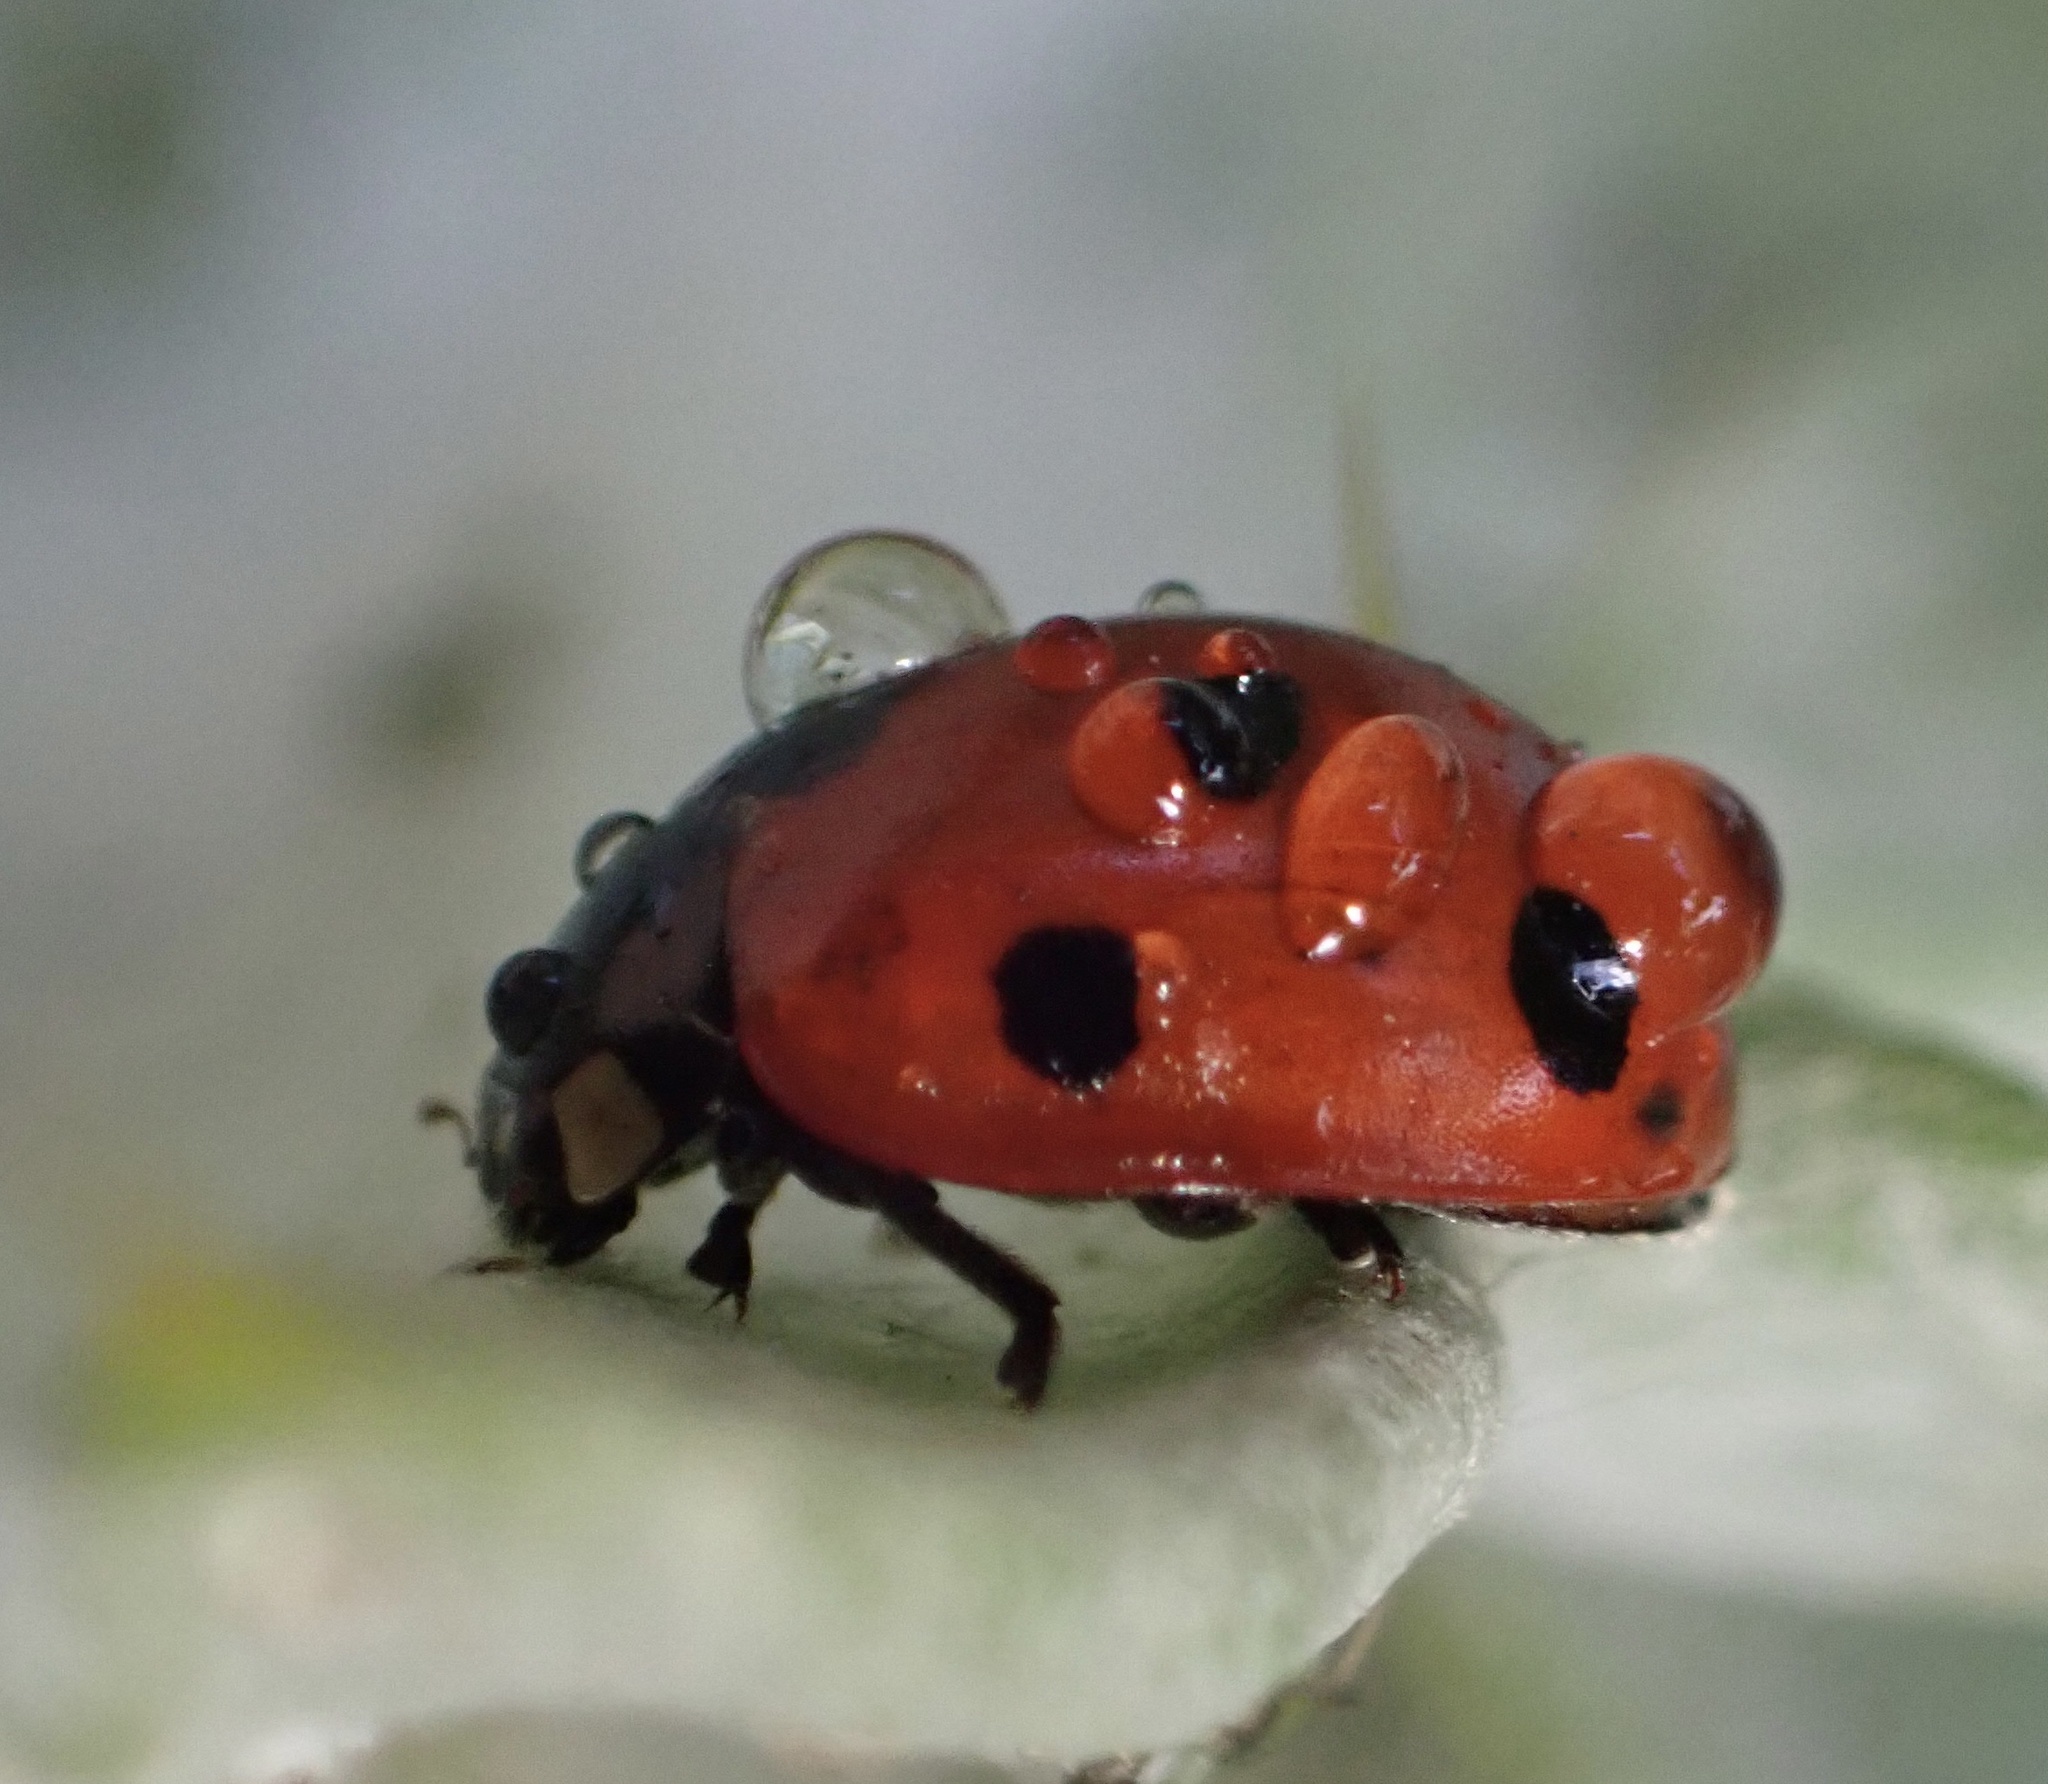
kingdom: Animalia
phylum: Arthropoda
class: Insecta
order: Coleoptera
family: Coccinellidae
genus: Coccinella
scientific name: Coccinella septempunctata
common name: Sevenspotted lady beetle
